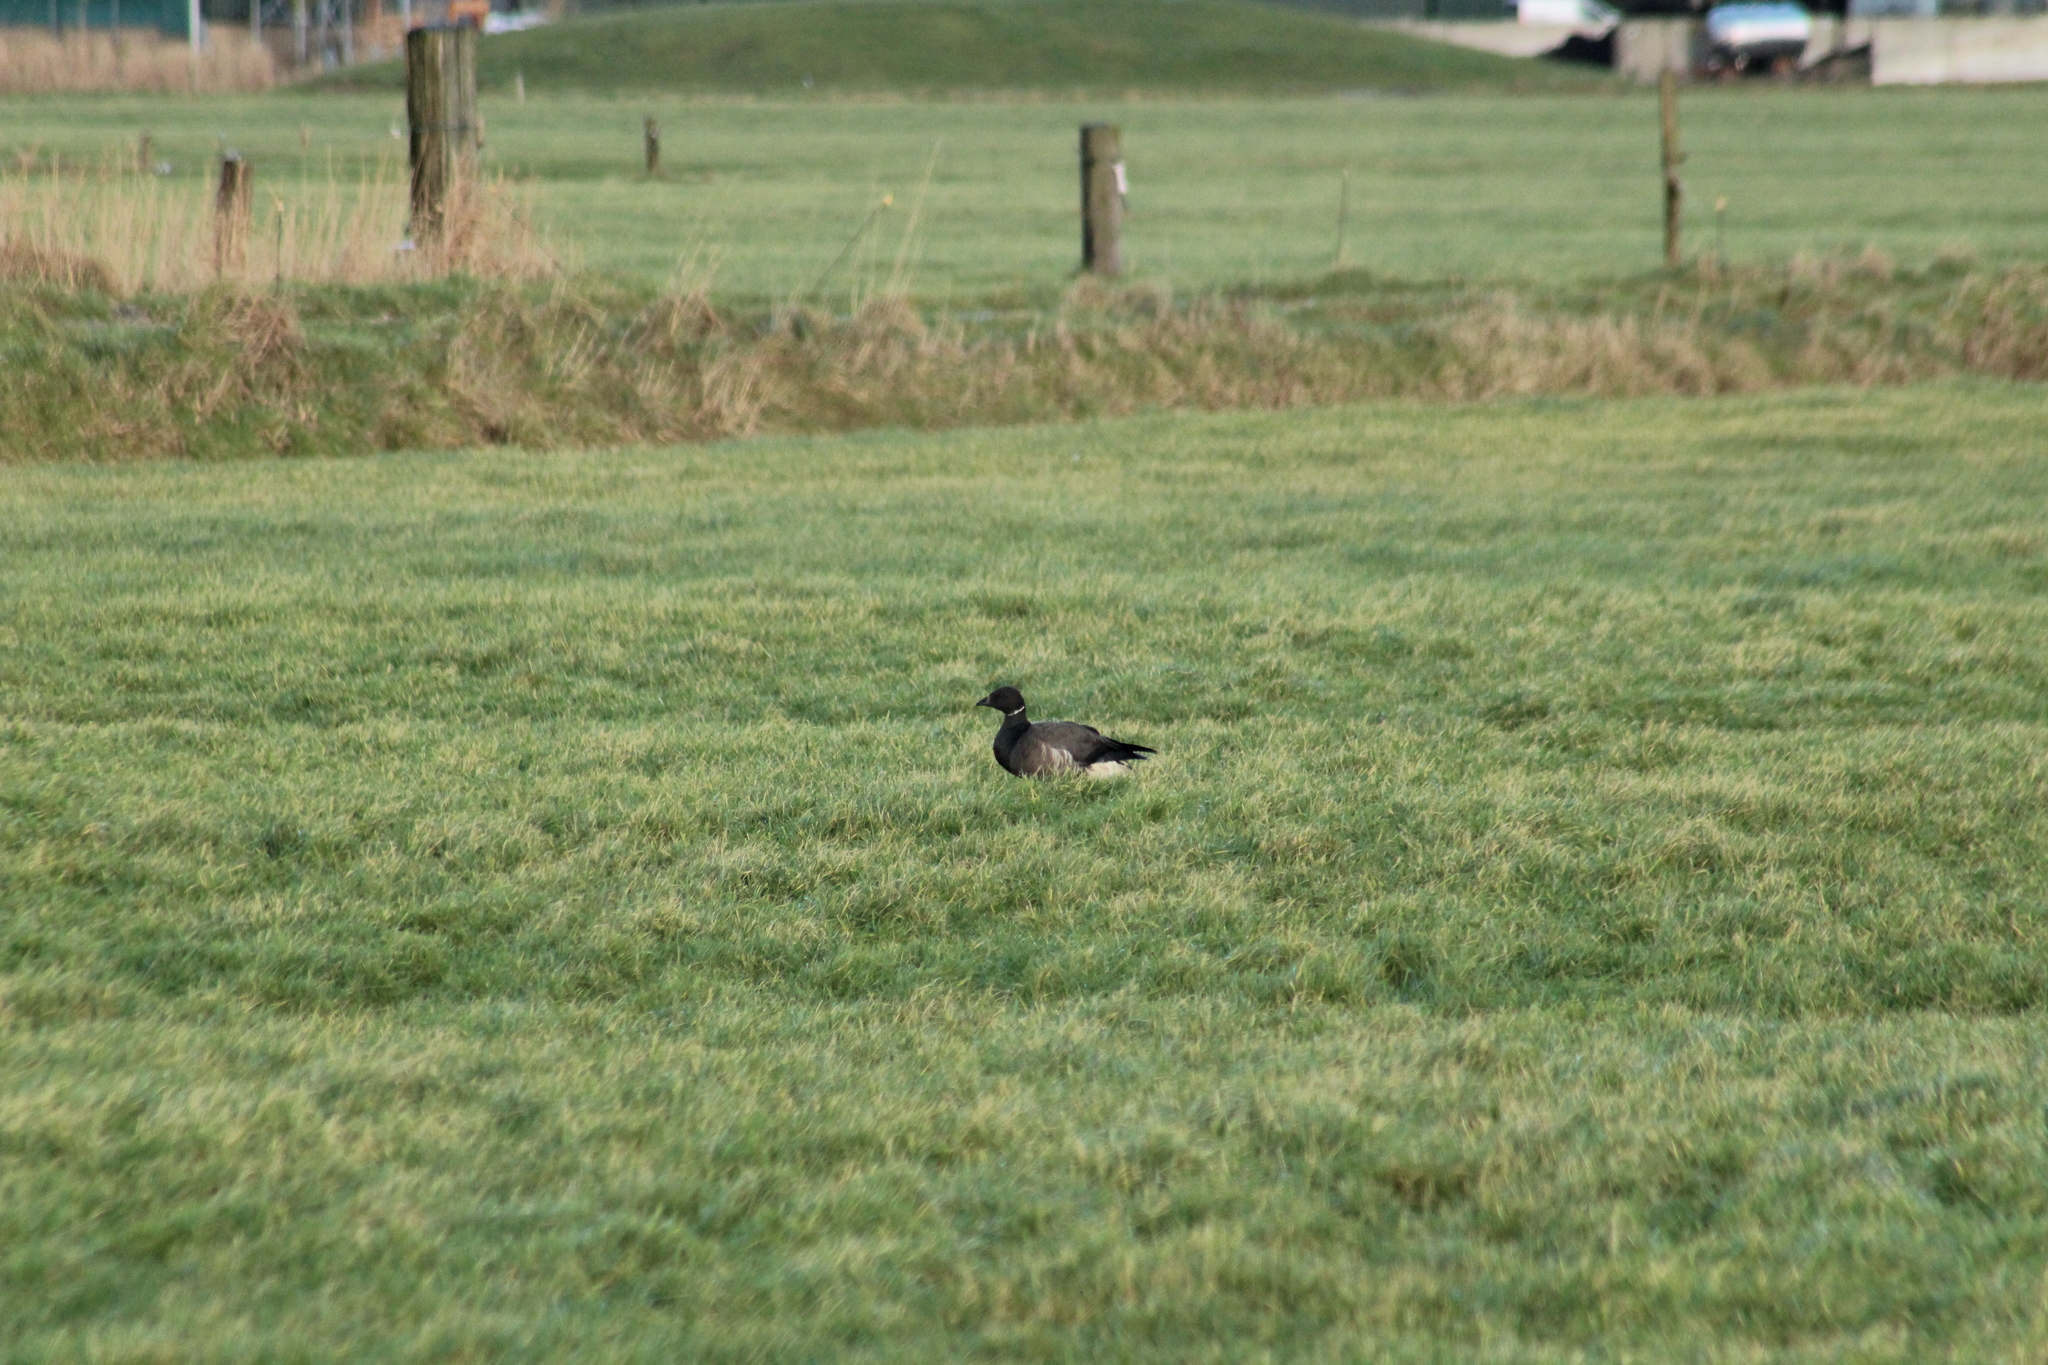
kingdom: Animalia
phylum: Chordata
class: Aves
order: Anseriformes
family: Anatidae
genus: Branta
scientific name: Branta bernicla
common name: Brant goose
